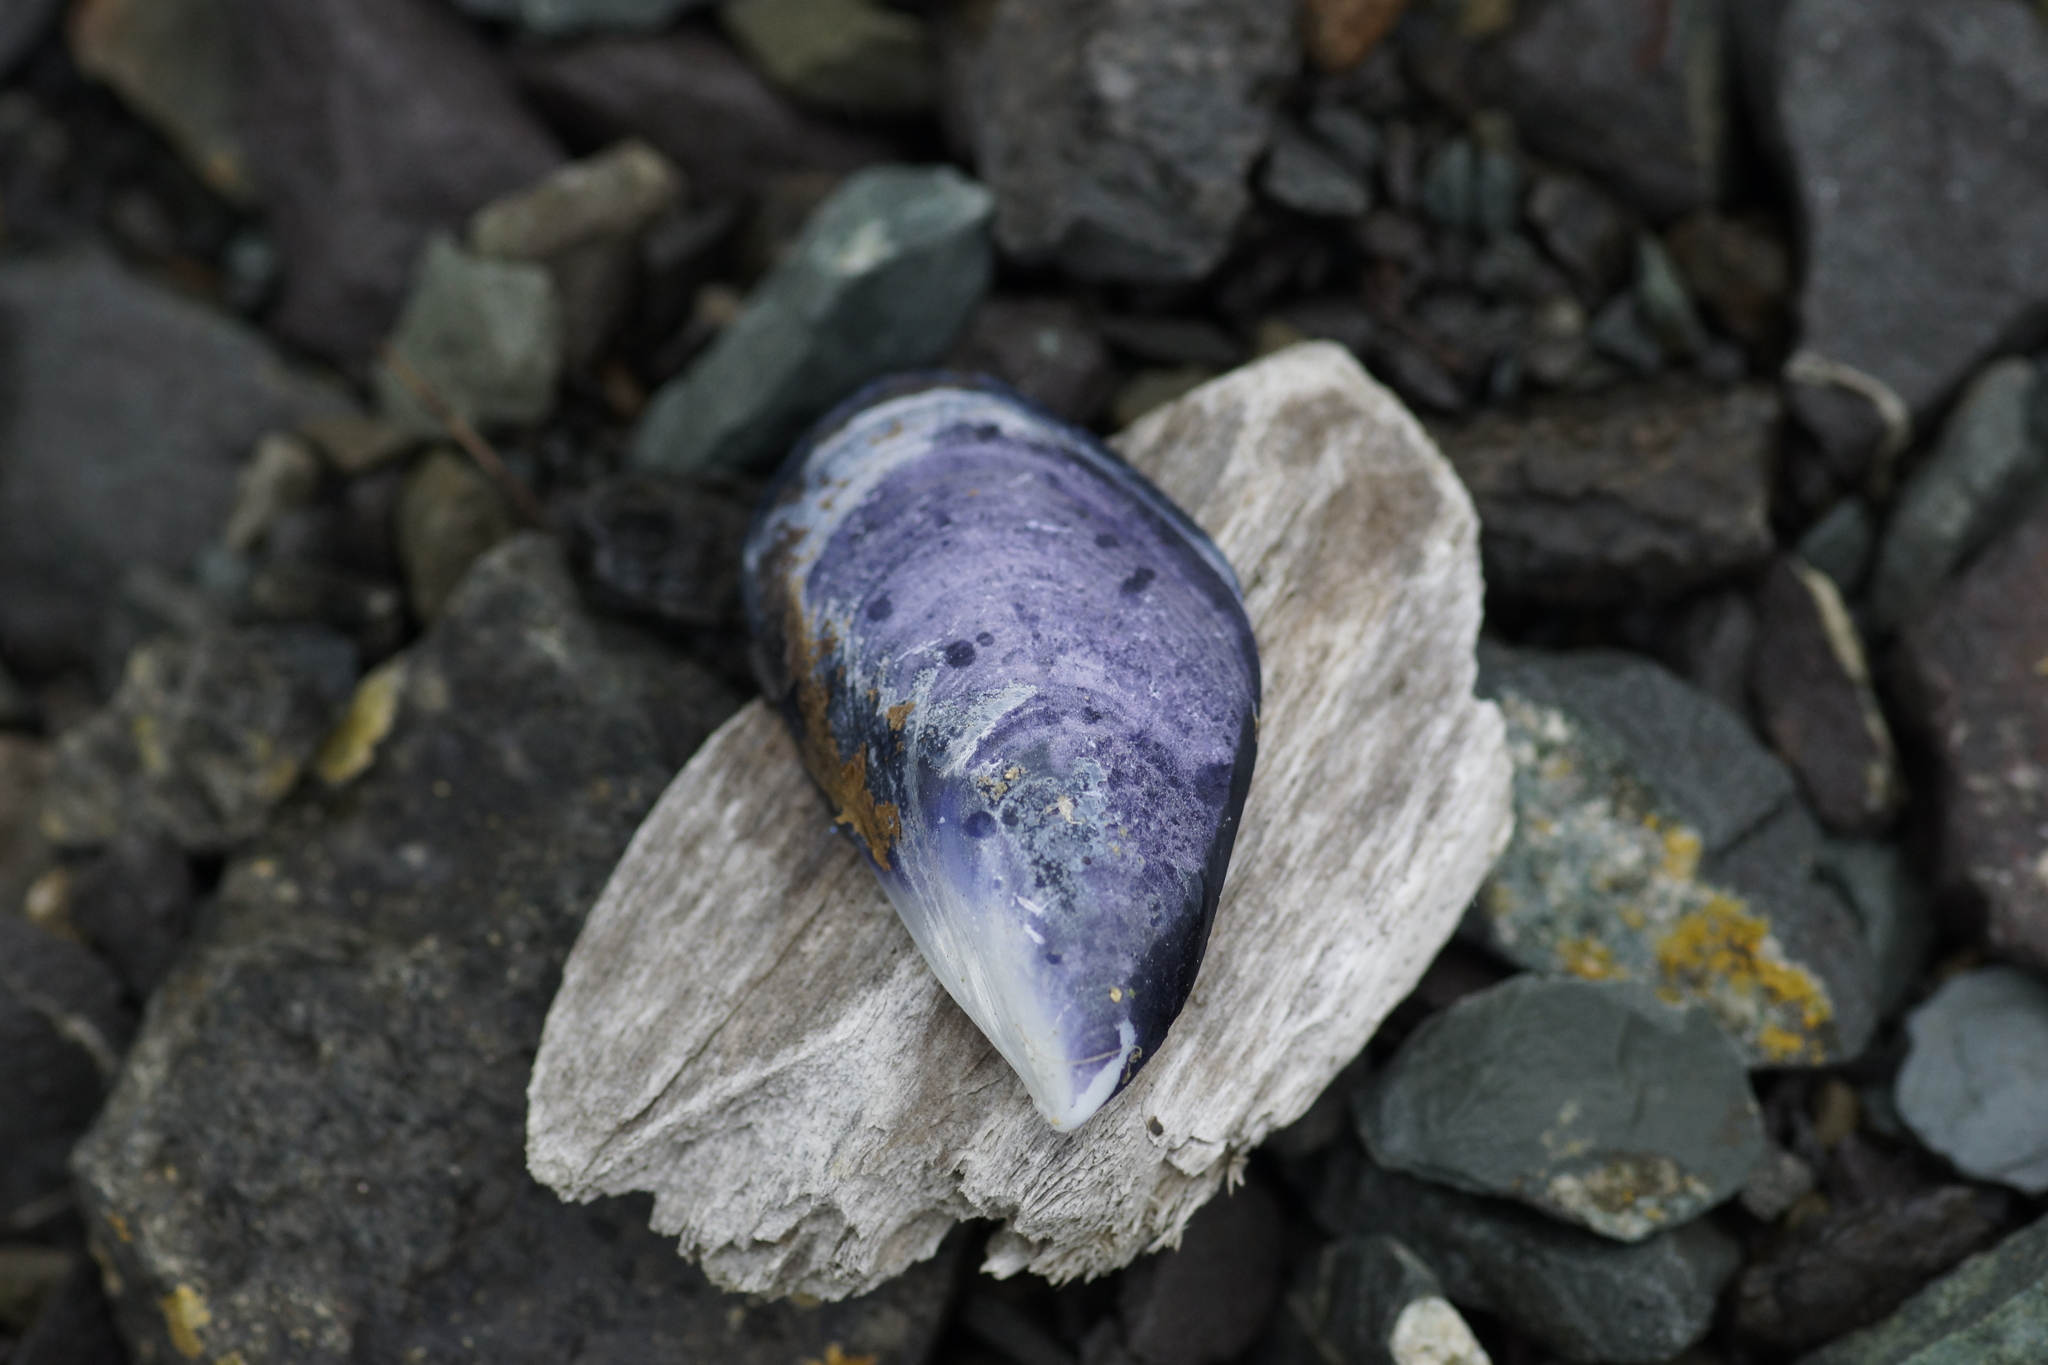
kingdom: Animalia
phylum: Mollusca
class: Bivalvia
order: Mytilida
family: Mytilidae
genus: Mytilus
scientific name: Mytilus planulatus
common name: Australian mussel
